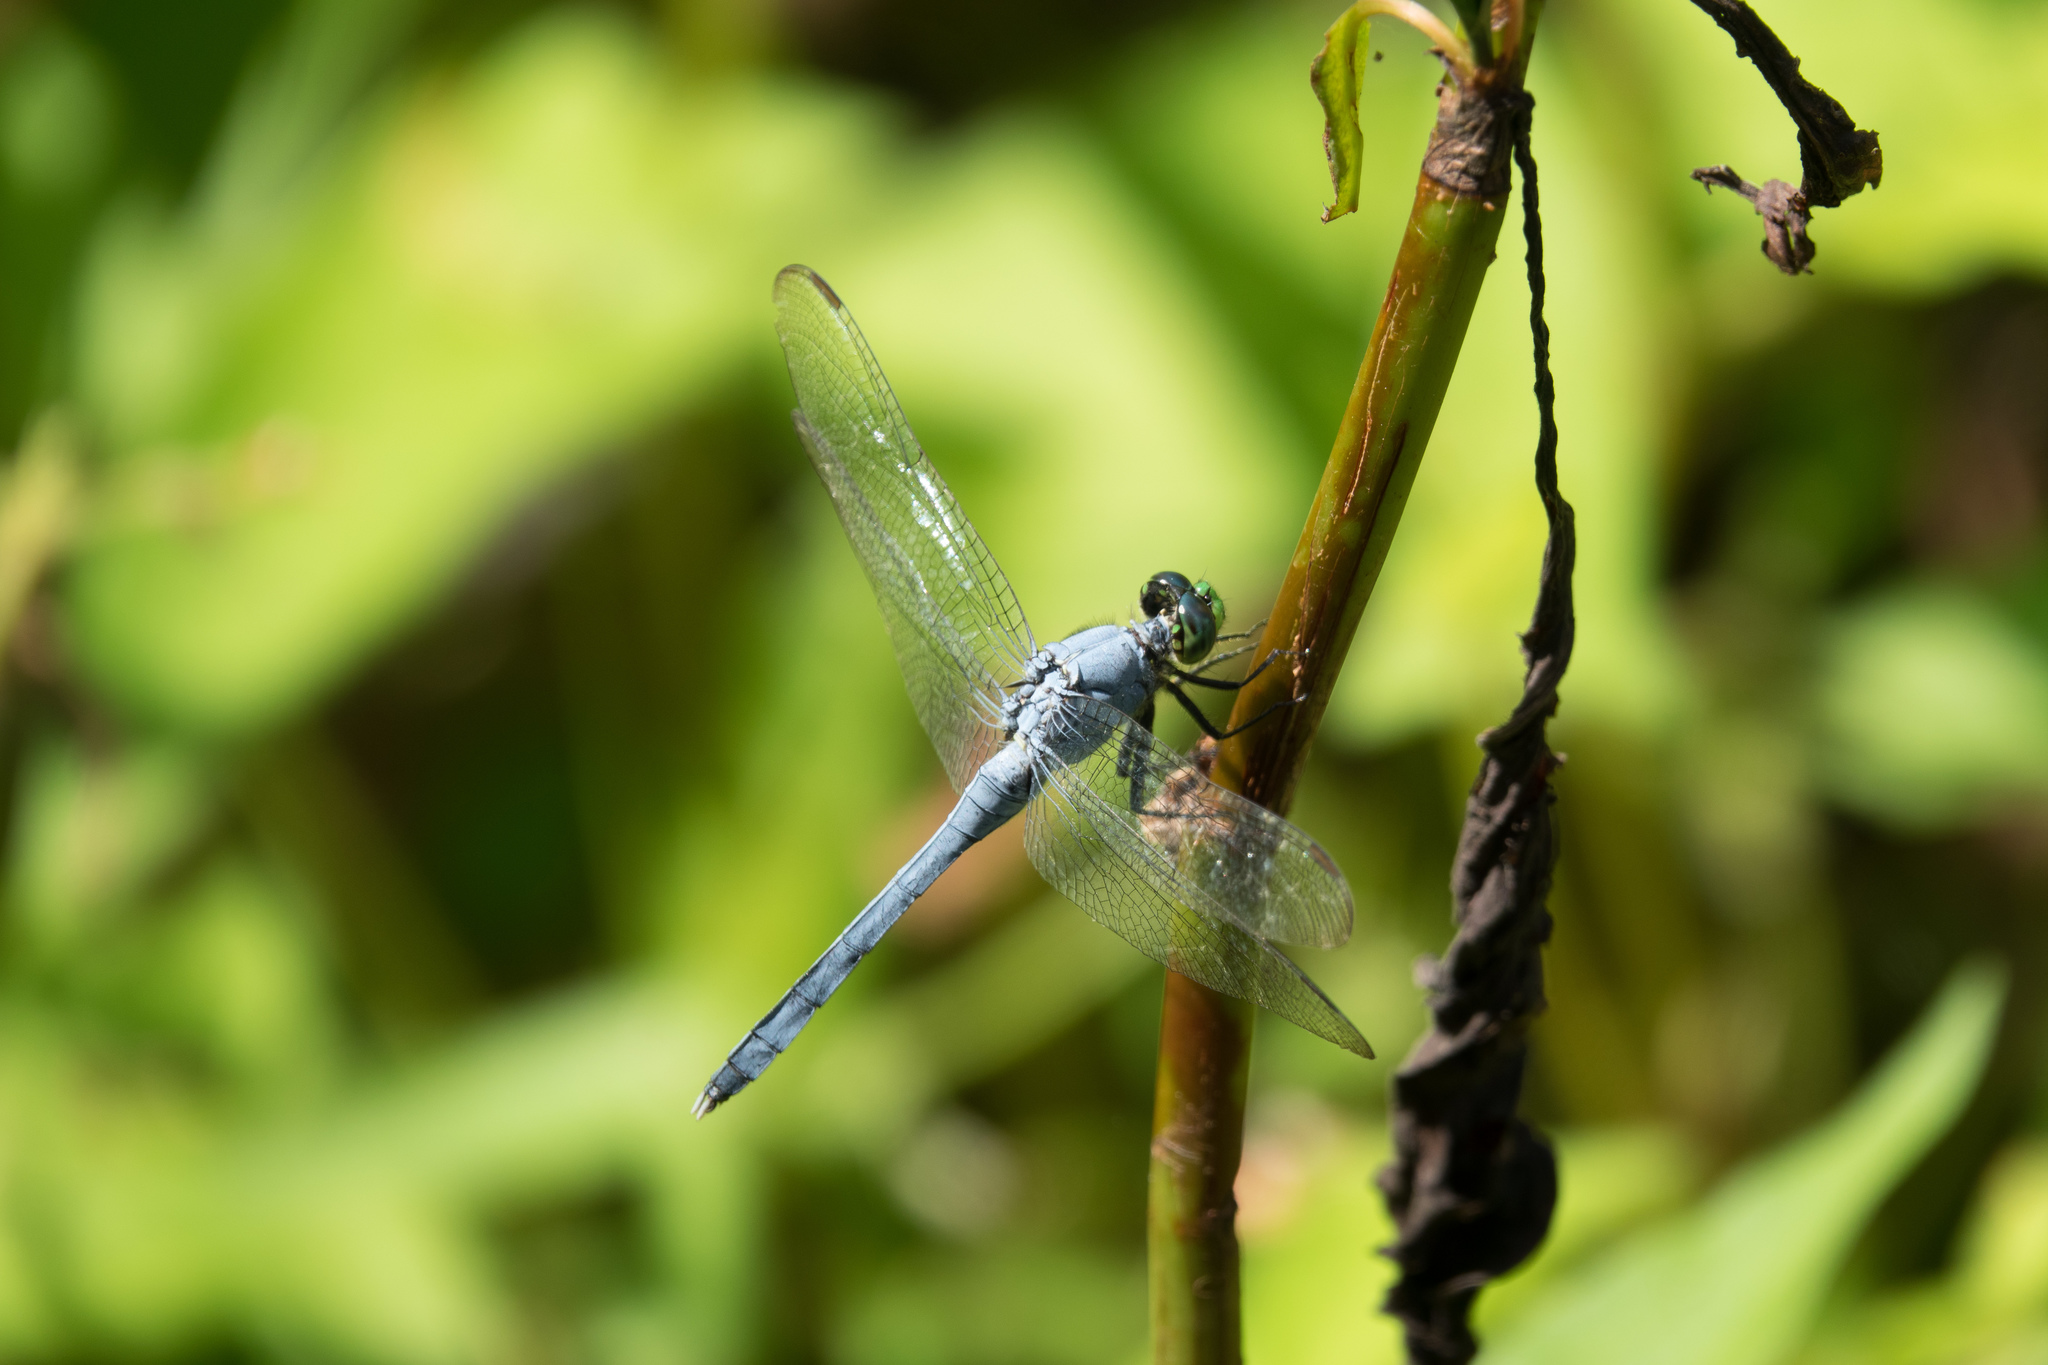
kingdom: Animalia
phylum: Arthropoda
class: Insecta
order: Odonata
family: Libellulidae
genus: Erythemis
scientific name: Erythemis simplicicollis
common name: Eastern pondhawk
